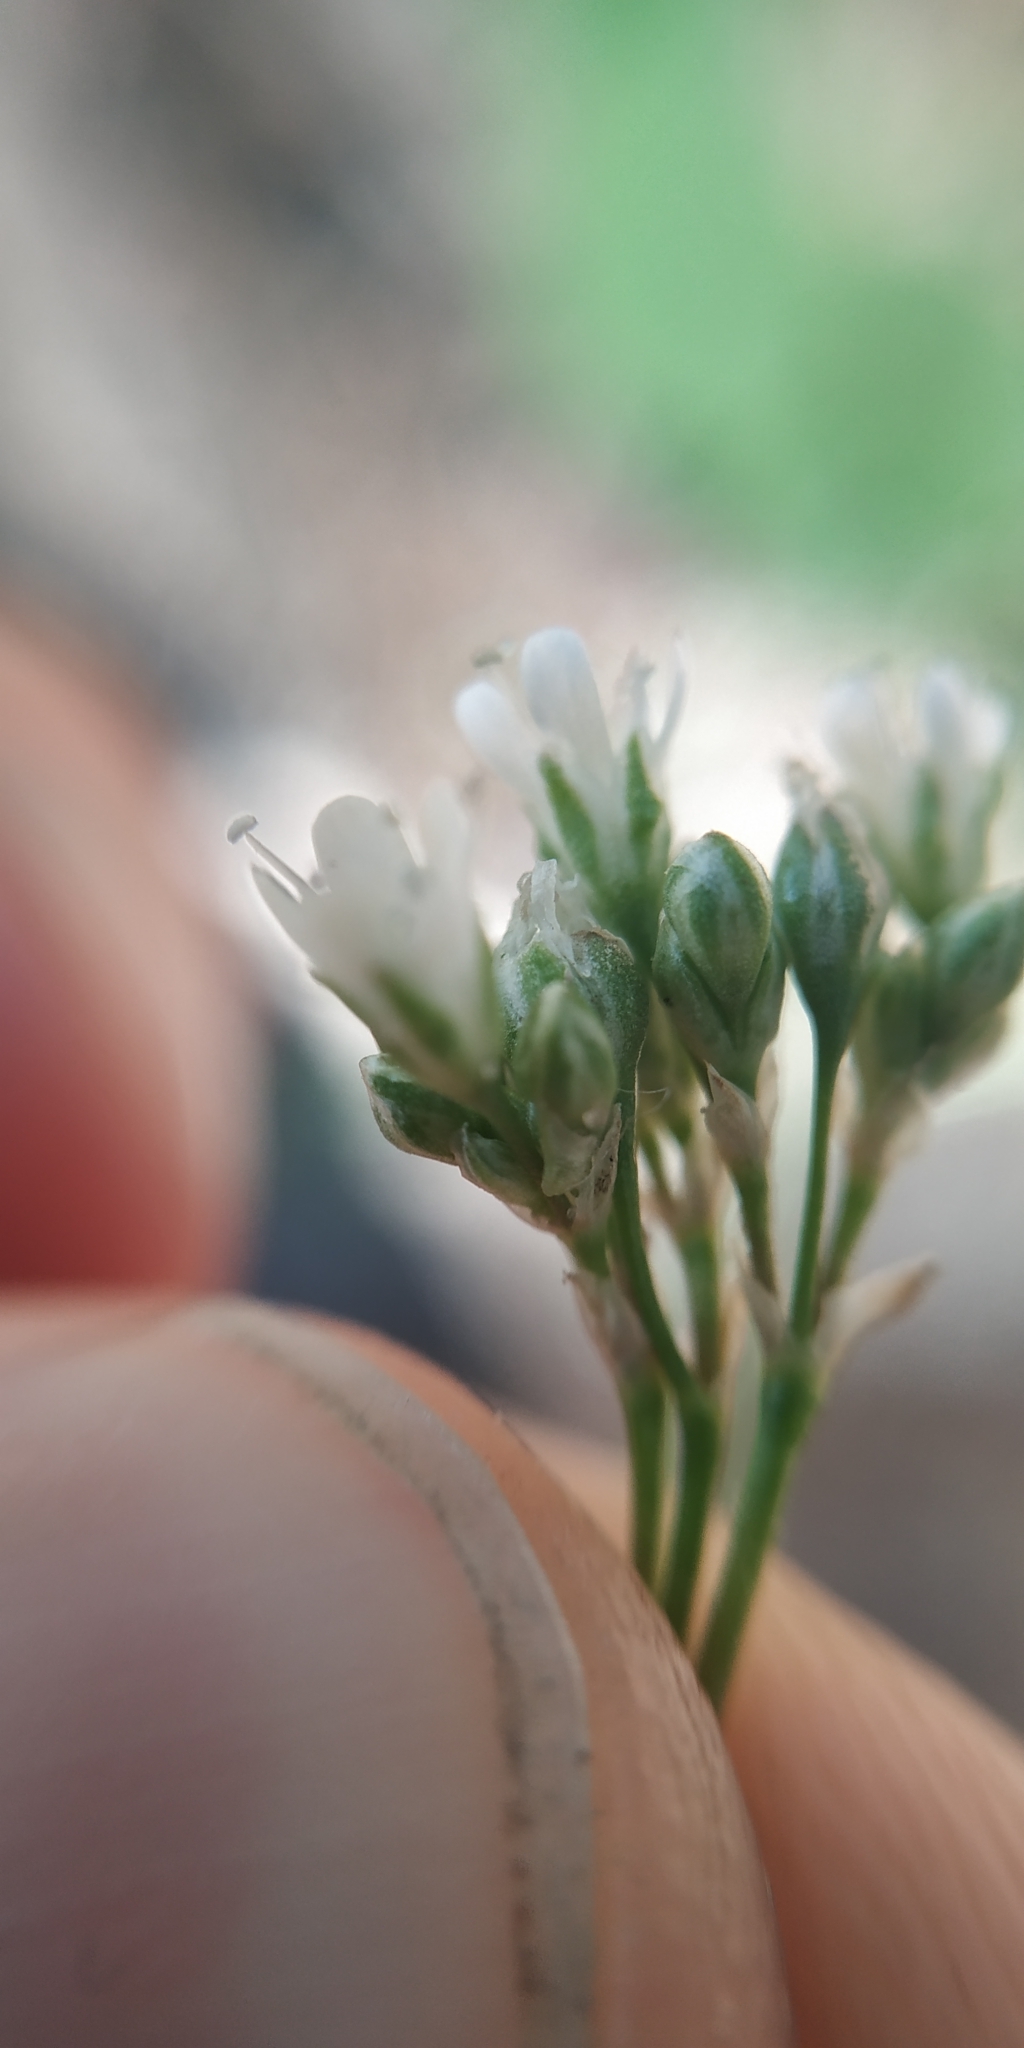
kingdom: Plantae
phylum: Tracheophyta
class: Magnoliopsida
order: Caryophyllales
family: Caryophyllaceae
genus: Gypsophila
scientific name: Gypsophila altissima
